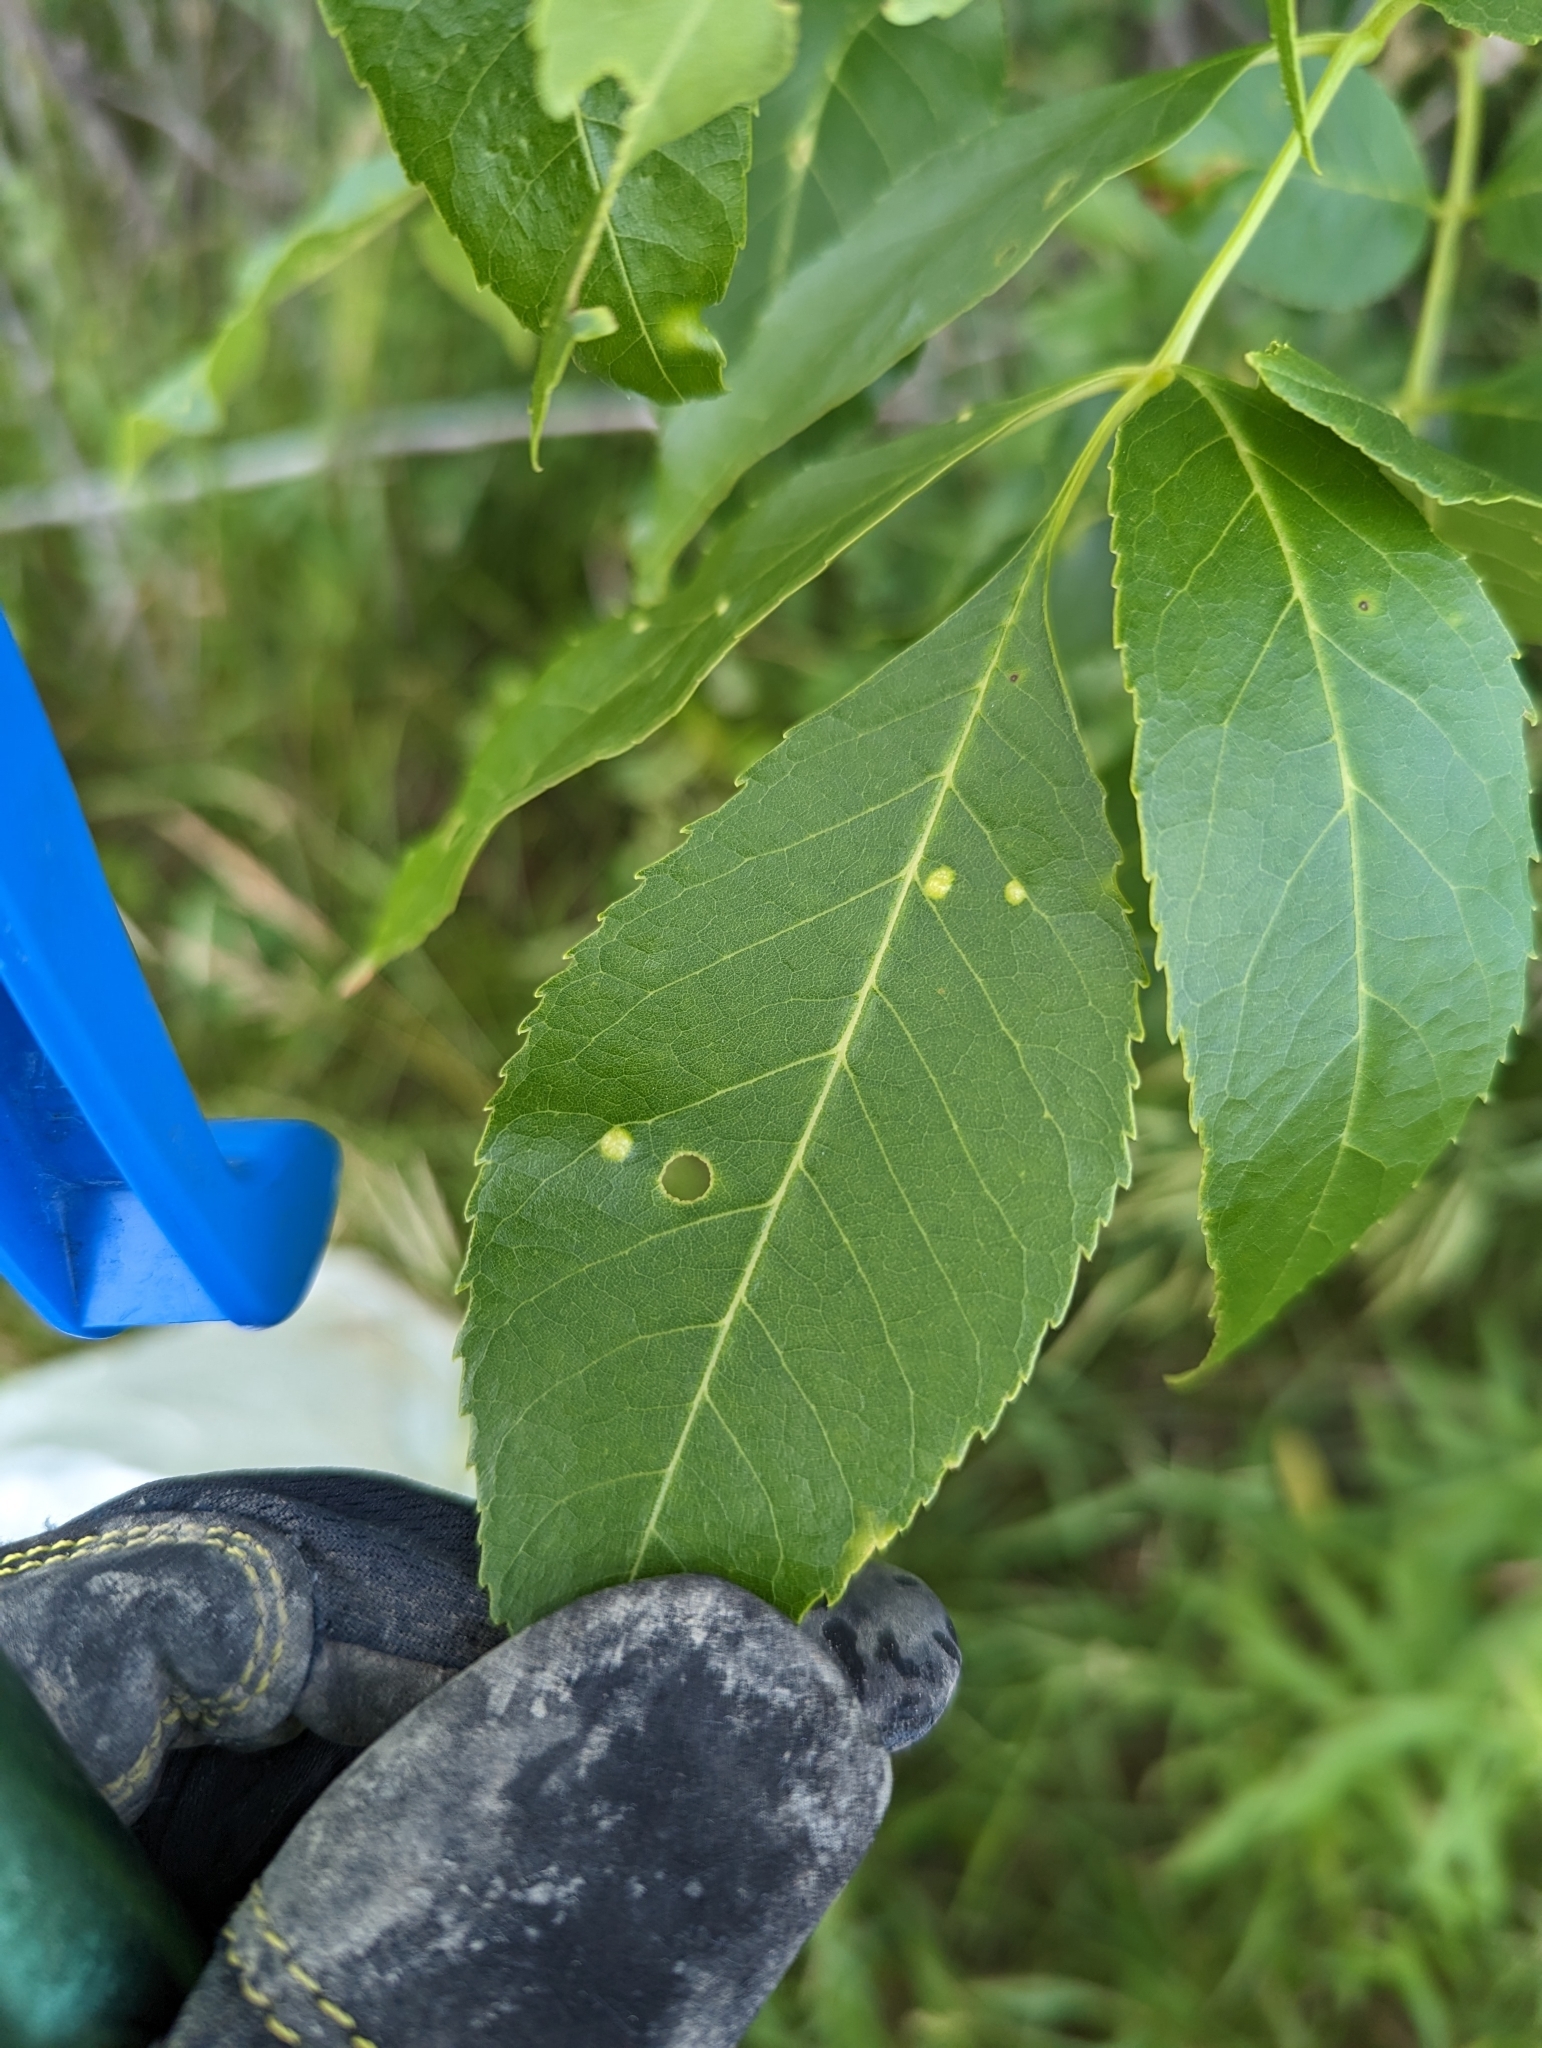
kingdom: Plantae
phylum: Tracheophyta
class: Magnoliopsida
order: Lamiales
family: Oleaceae
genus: Fraxinus
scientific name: Fraxinus pennsylvanica
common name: Green ash
